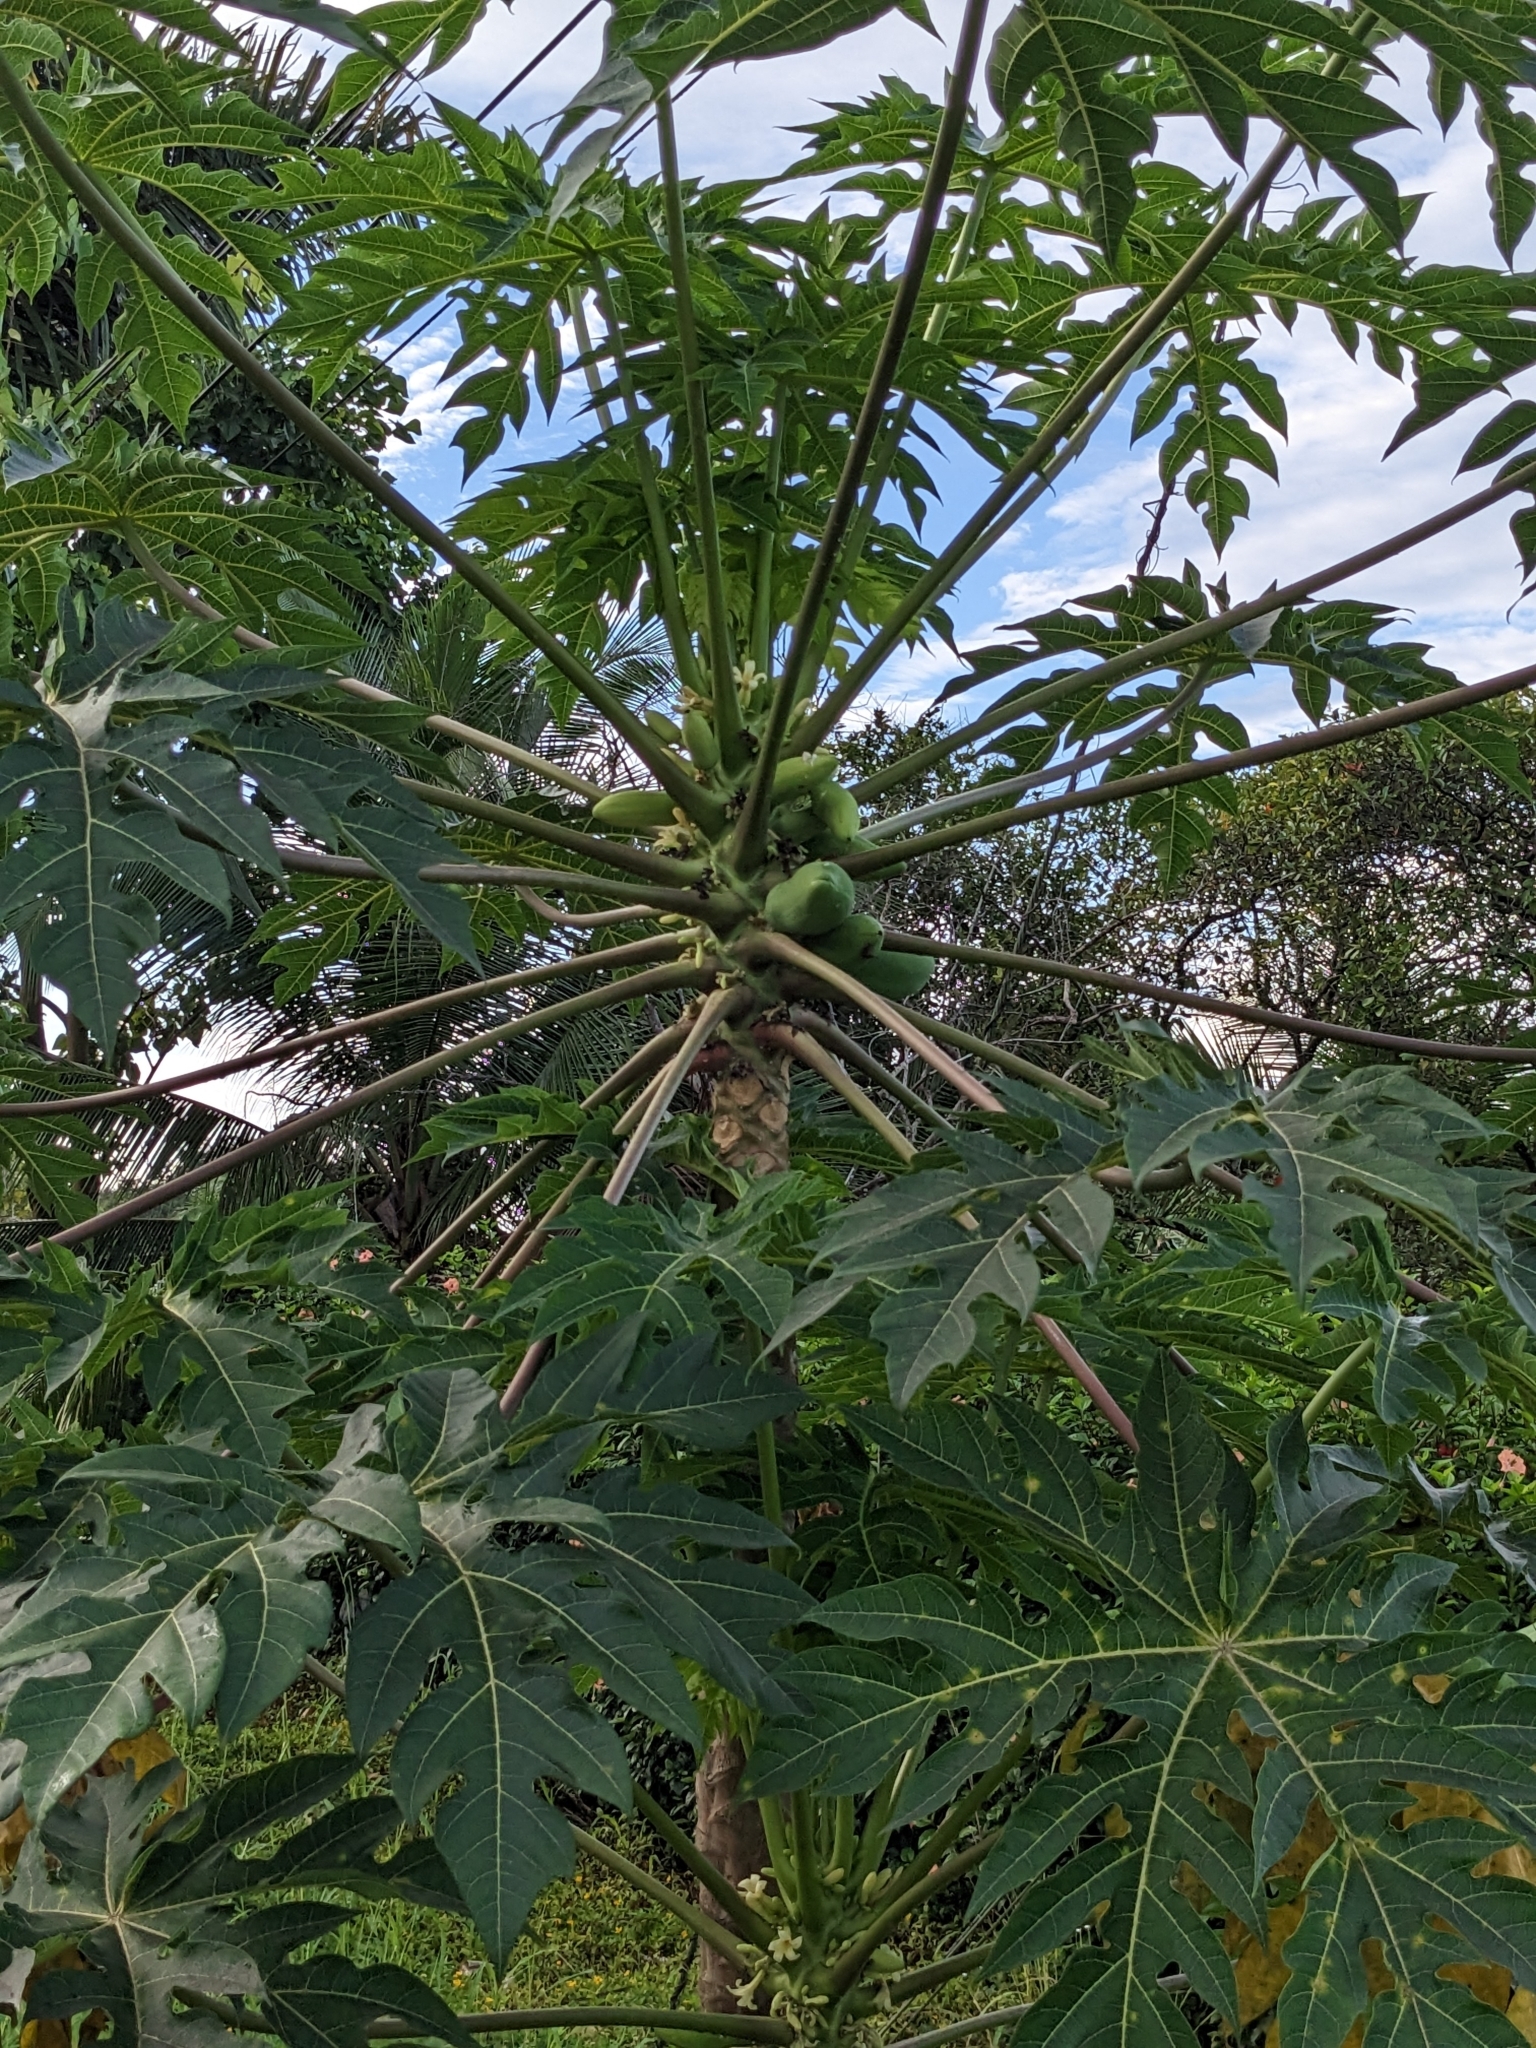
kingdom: Plantae
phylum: Tracheophyta
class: Magnoliopsida
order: Brassicales
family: Caricaceae
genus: Carica
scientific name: Carica papaya
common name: Papaya
